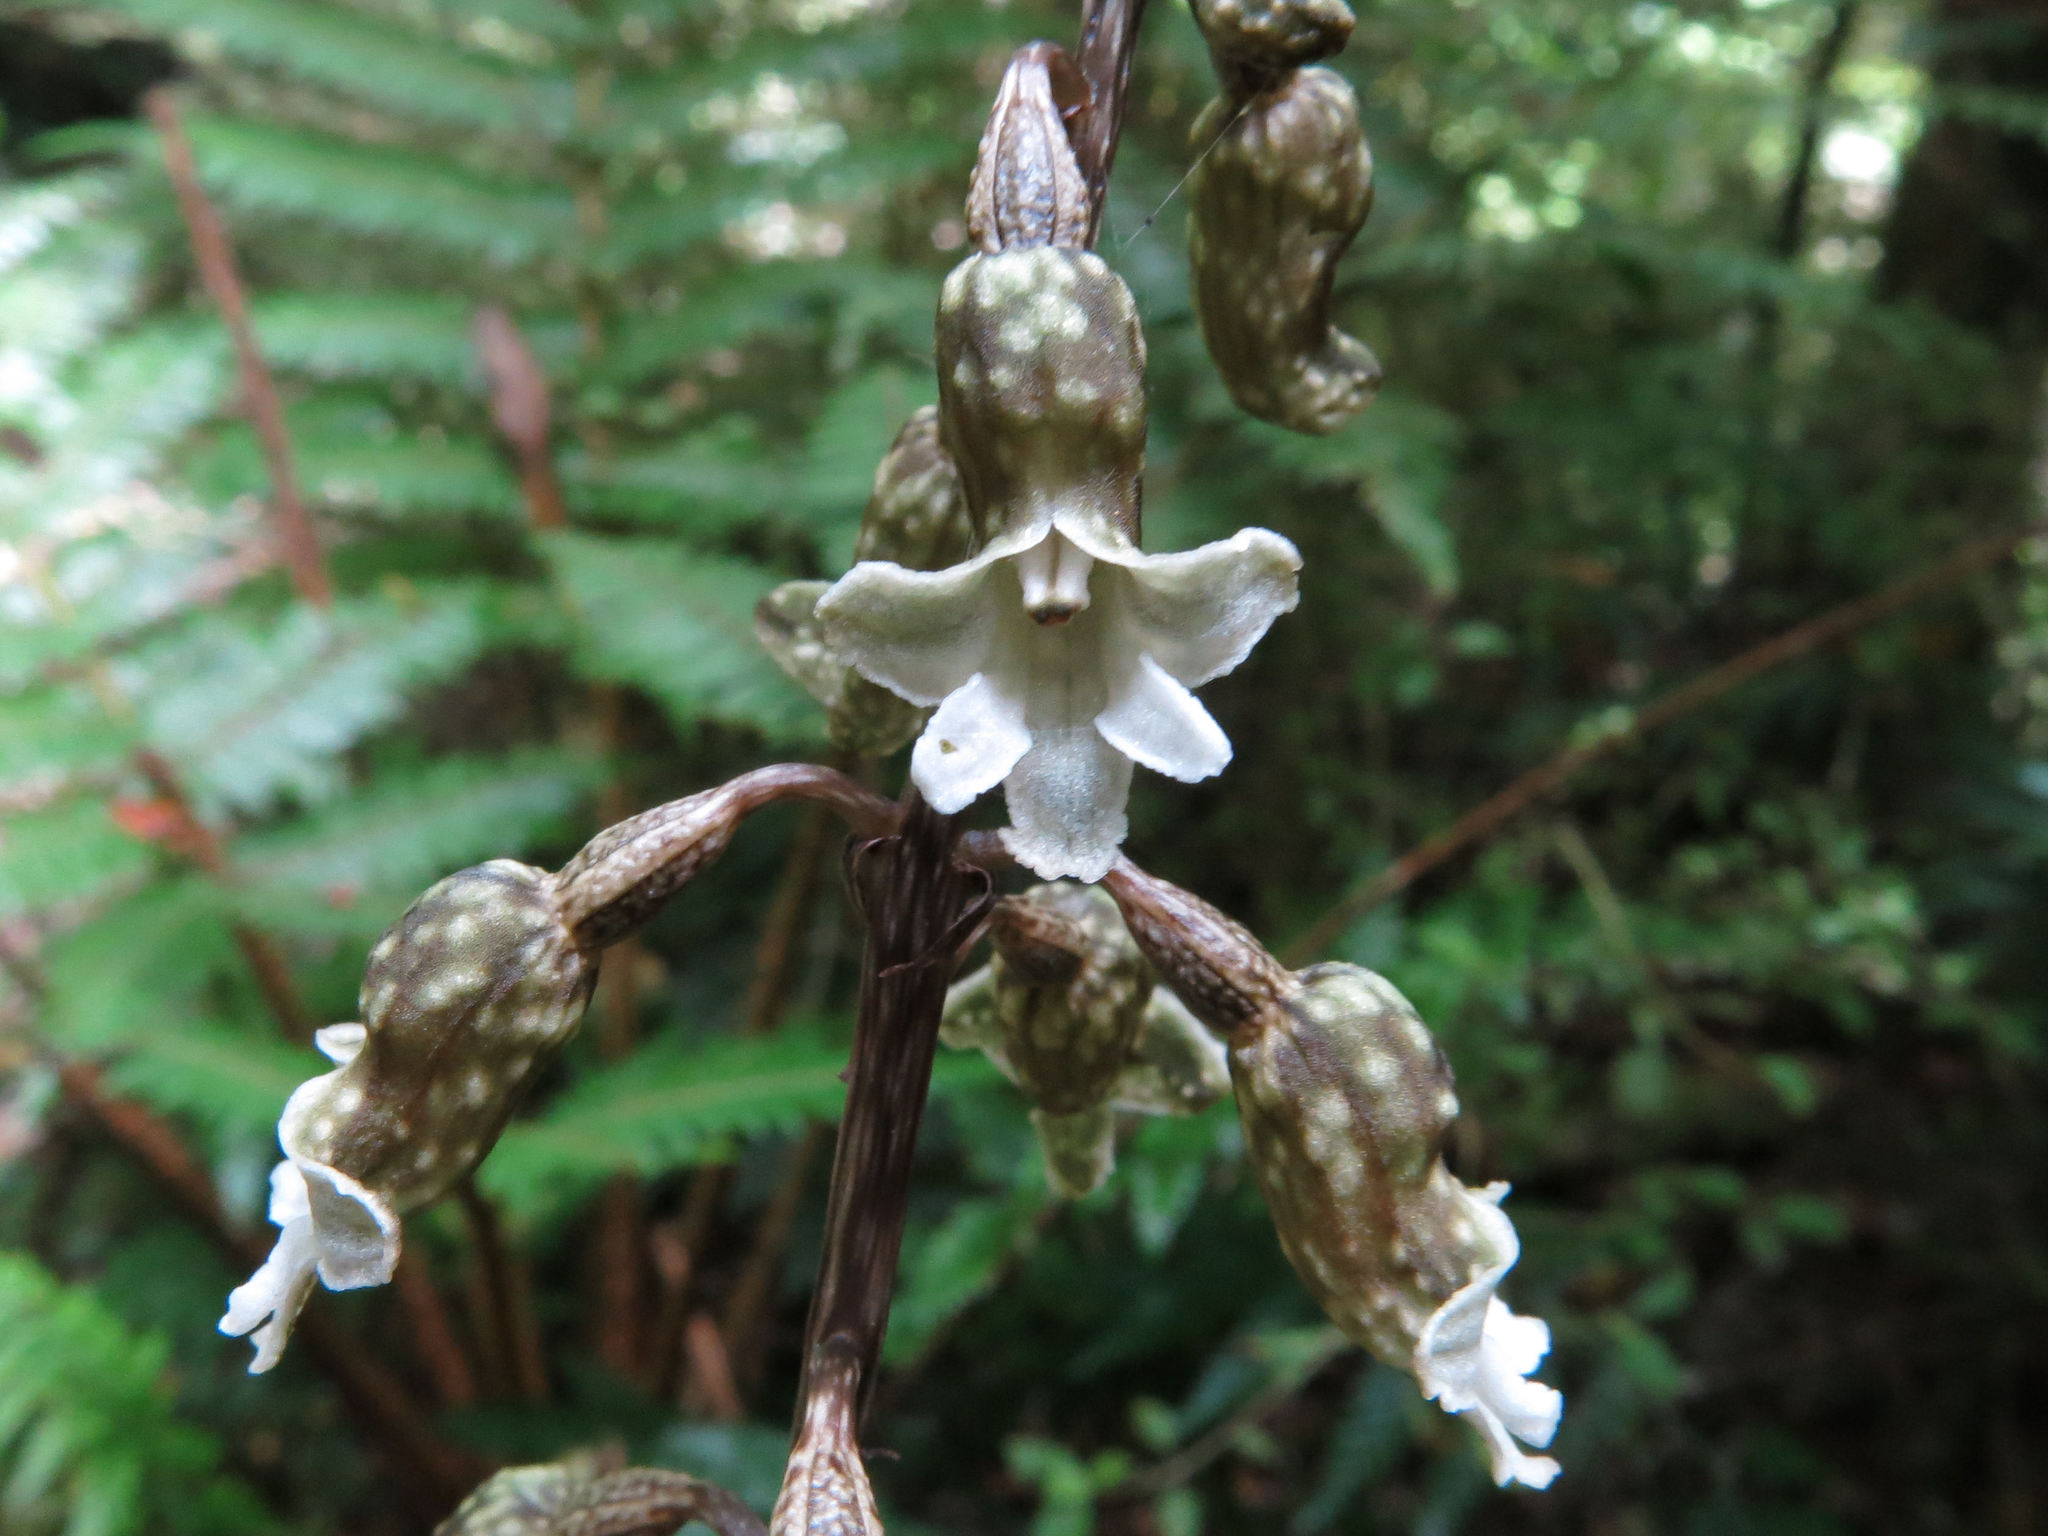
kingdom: Plantae
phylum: Tracheophyta
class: Liliopsida
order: Asparagales
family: Orchidaceae
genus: Gastrodia
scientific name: Gastrodia cunninghamii
